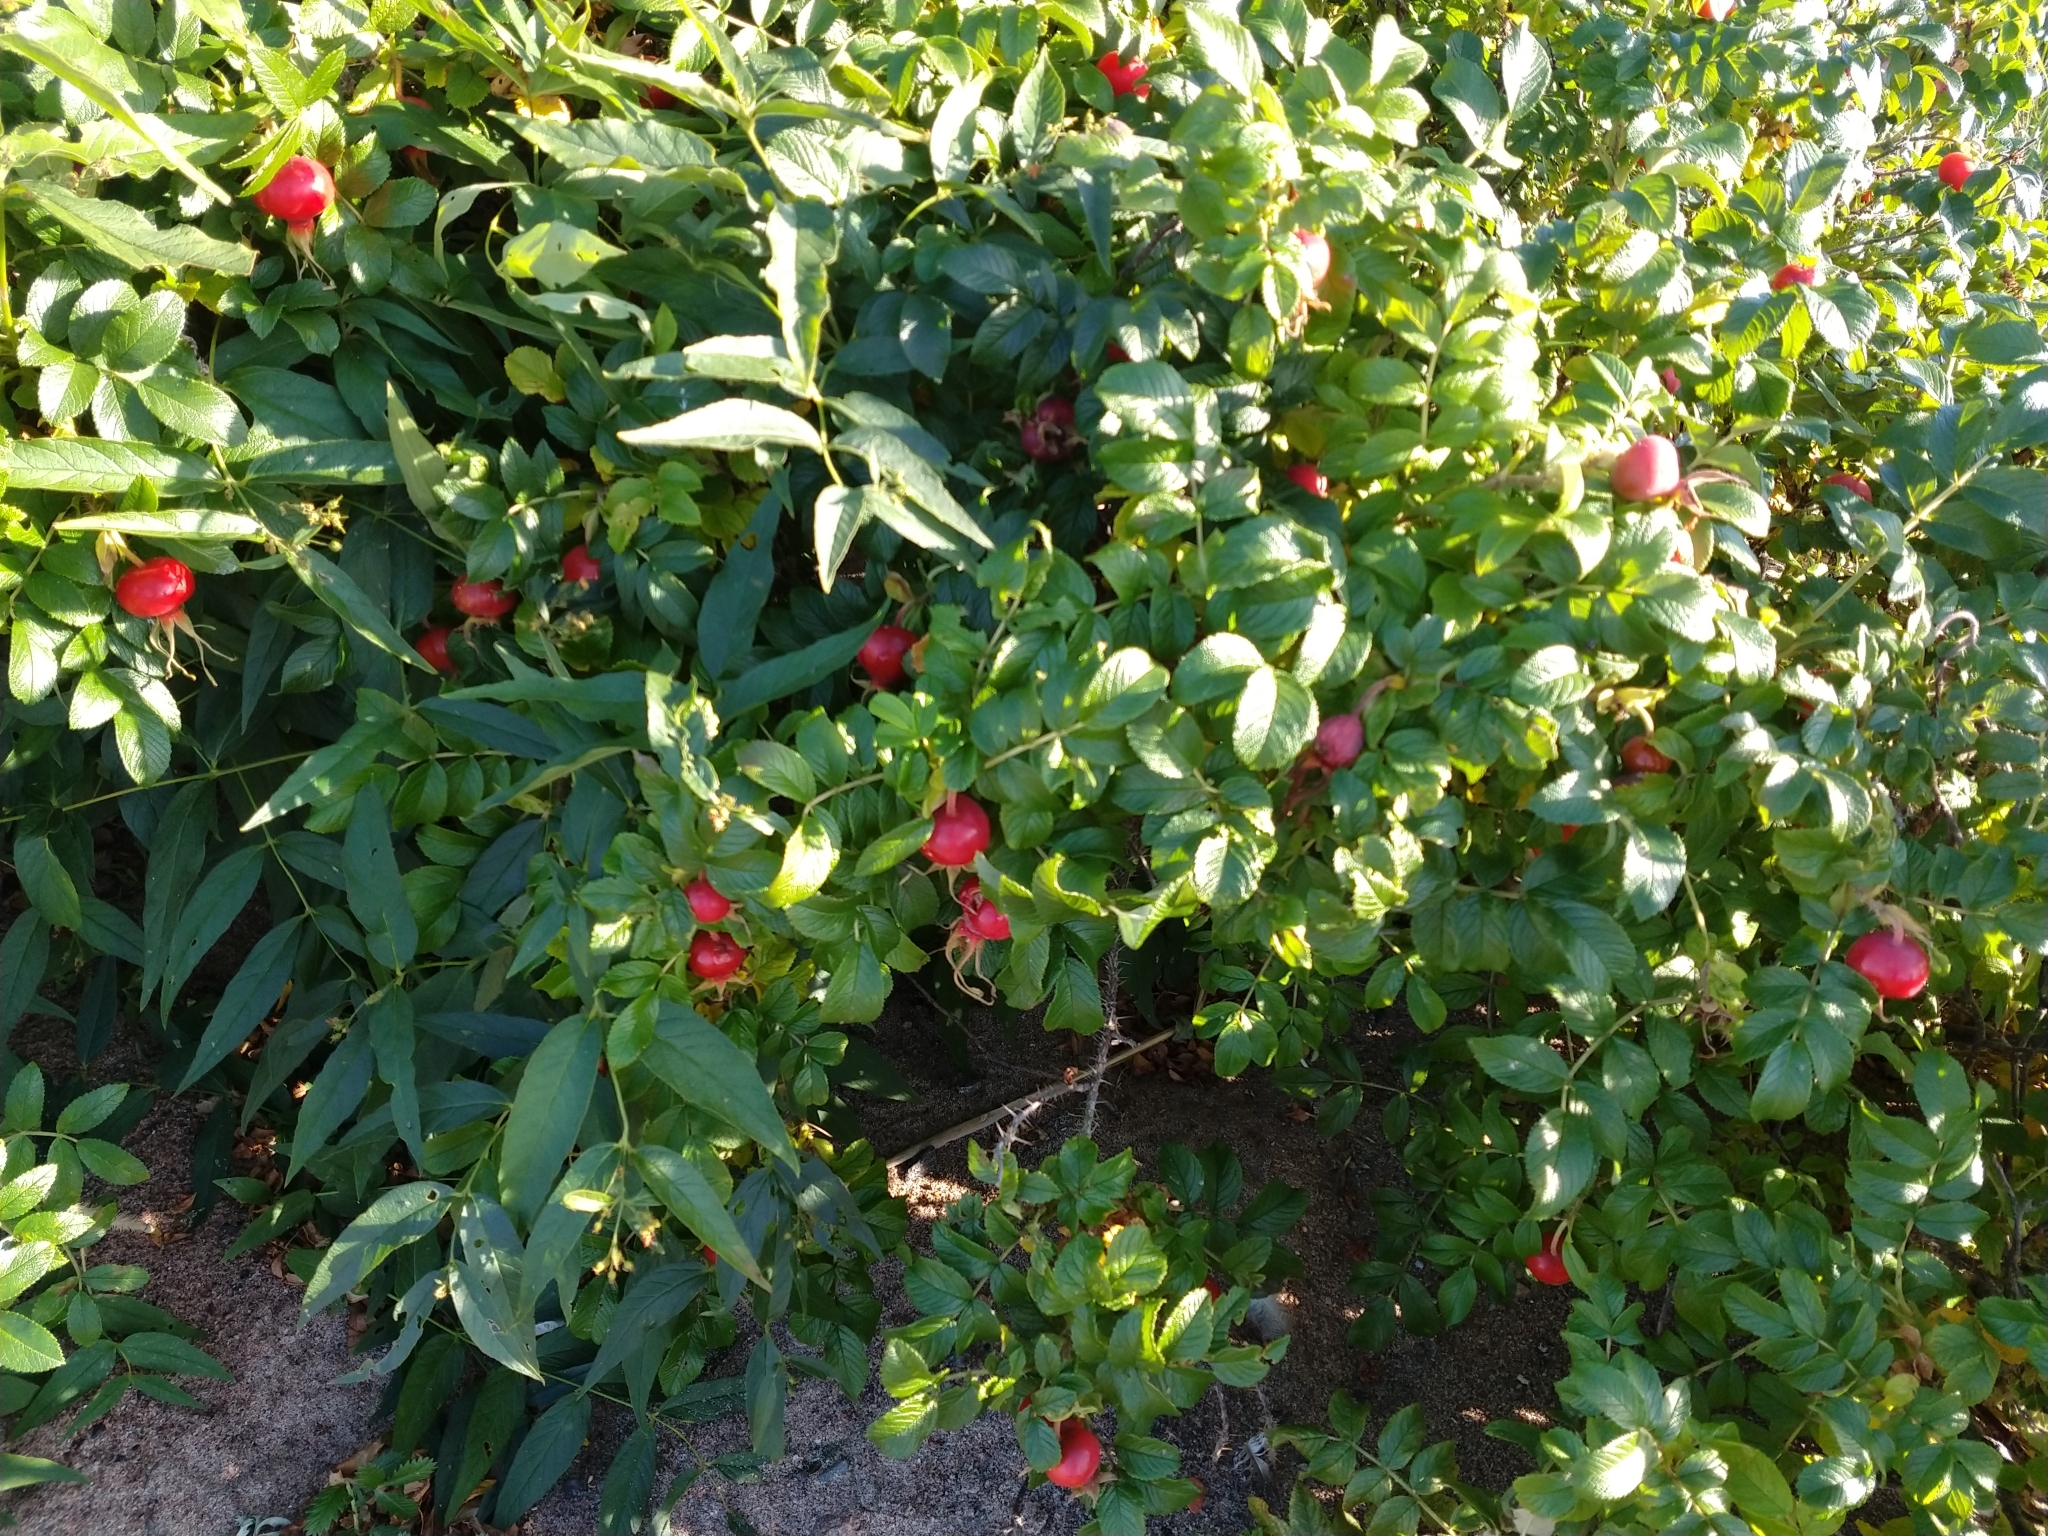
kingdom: Plantae
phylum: Tracheophyta
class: Magnoliopsida
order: Rosales
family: Rosaceae
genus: Rosa
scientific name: Rosa rugosa
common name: Japanese rose
